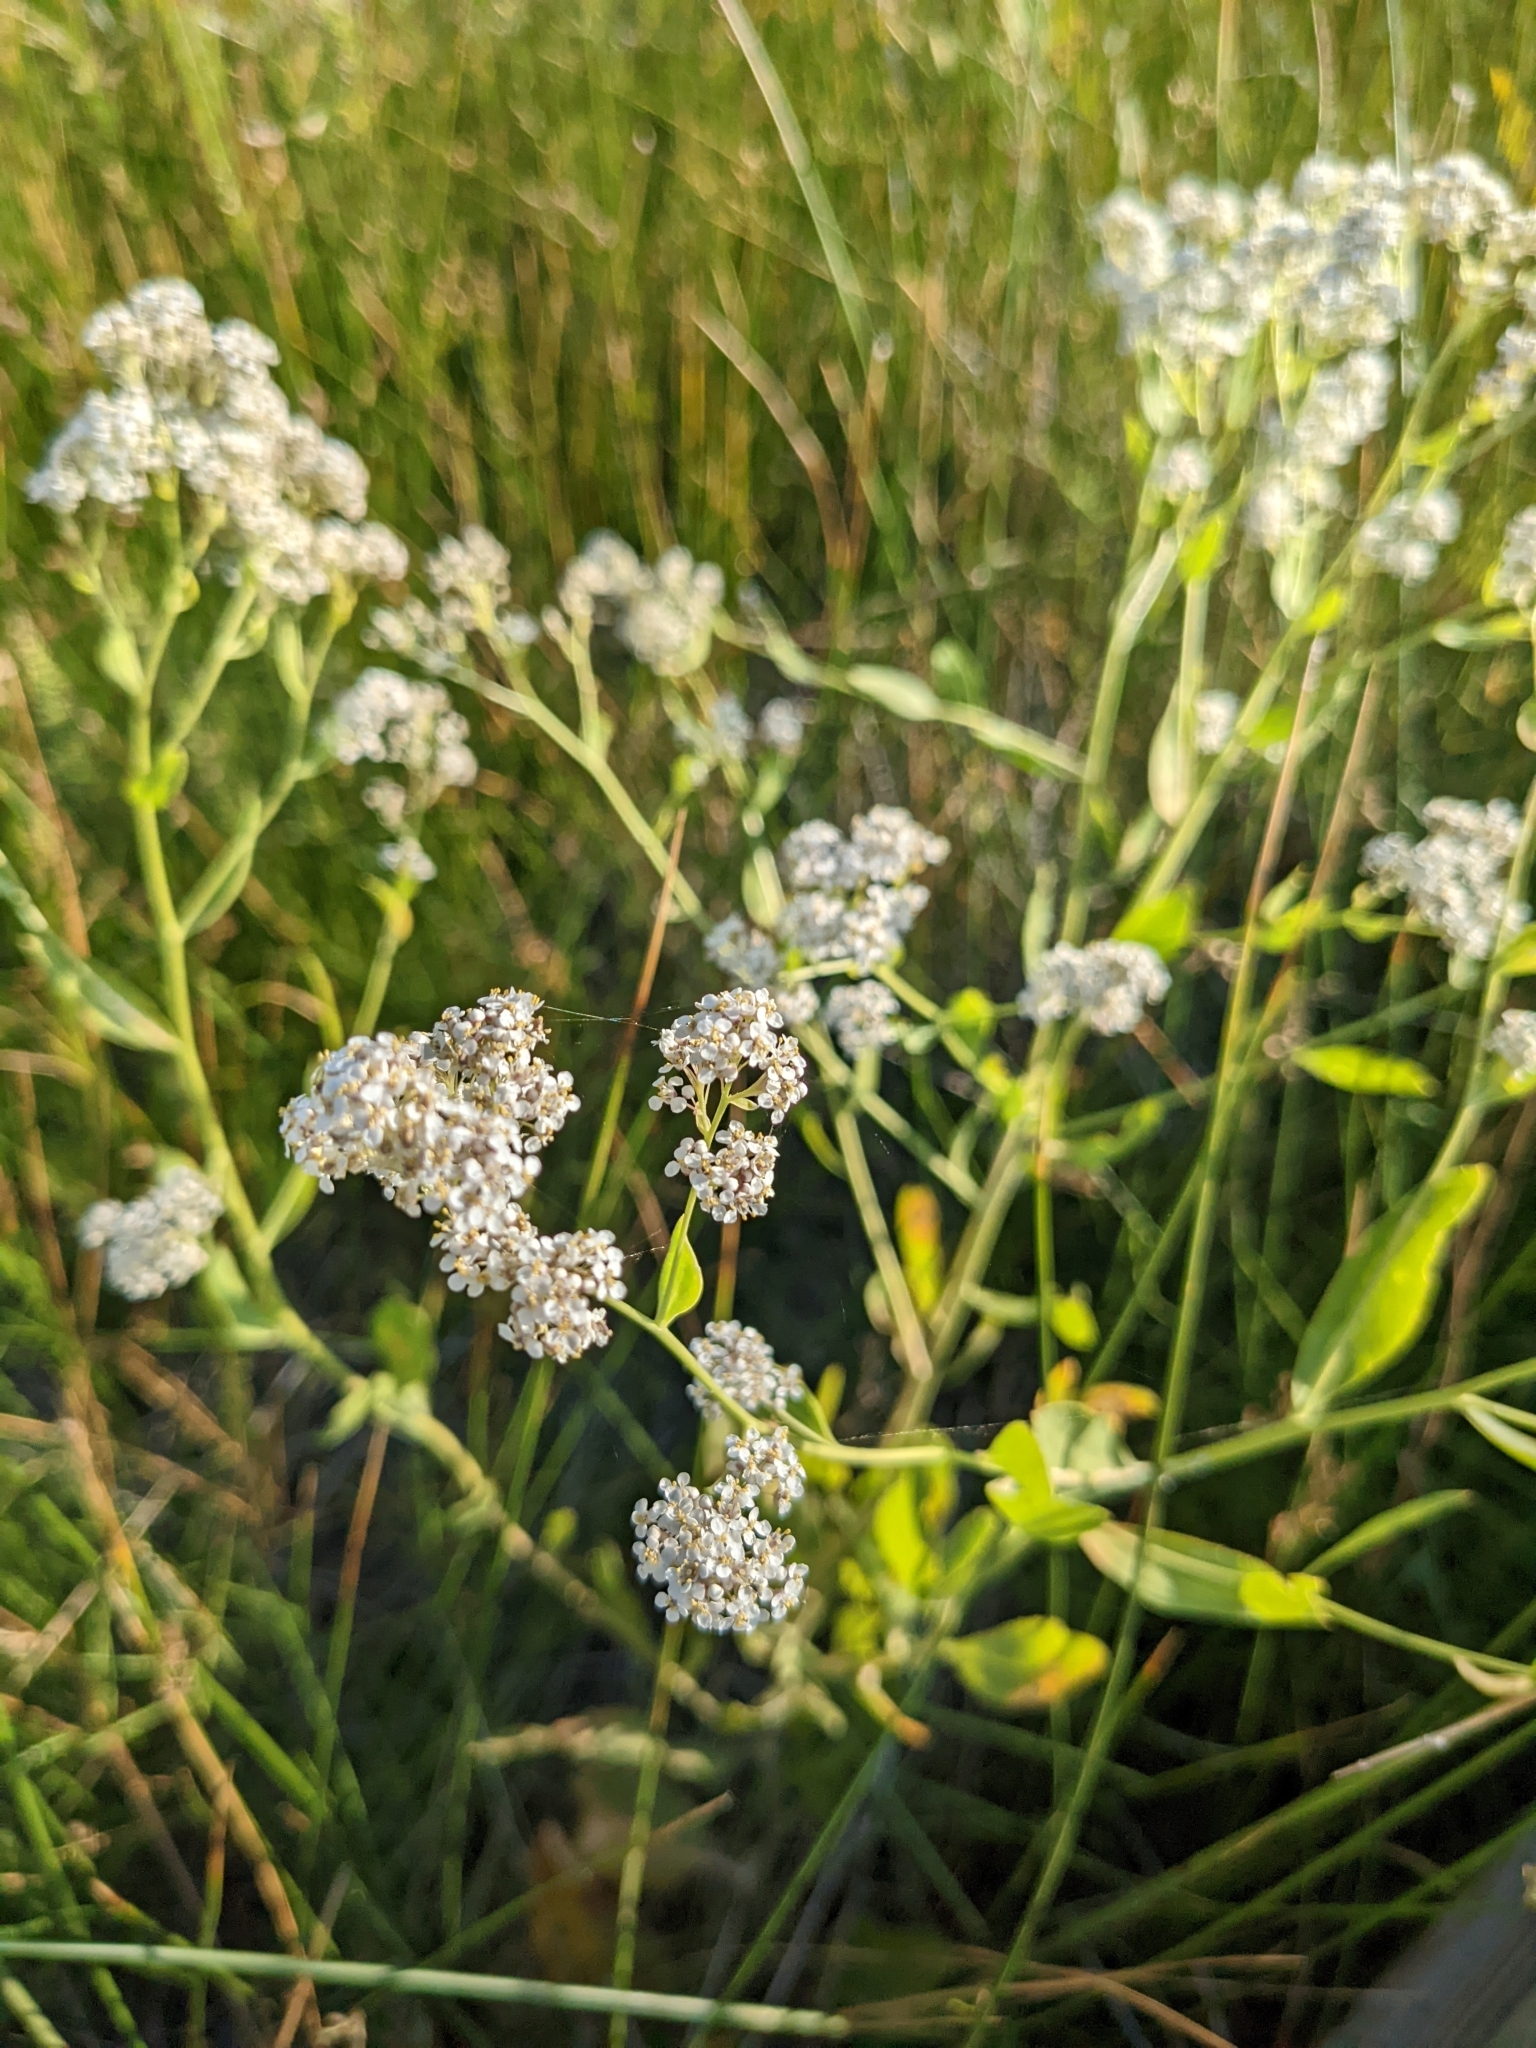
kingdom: Plantae
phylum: Tracheophyta
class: Magnoliopsida
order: Brassicales
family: Brassicaceae
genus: Lepidium
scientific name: Lepidium latifolium
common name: Dittander
